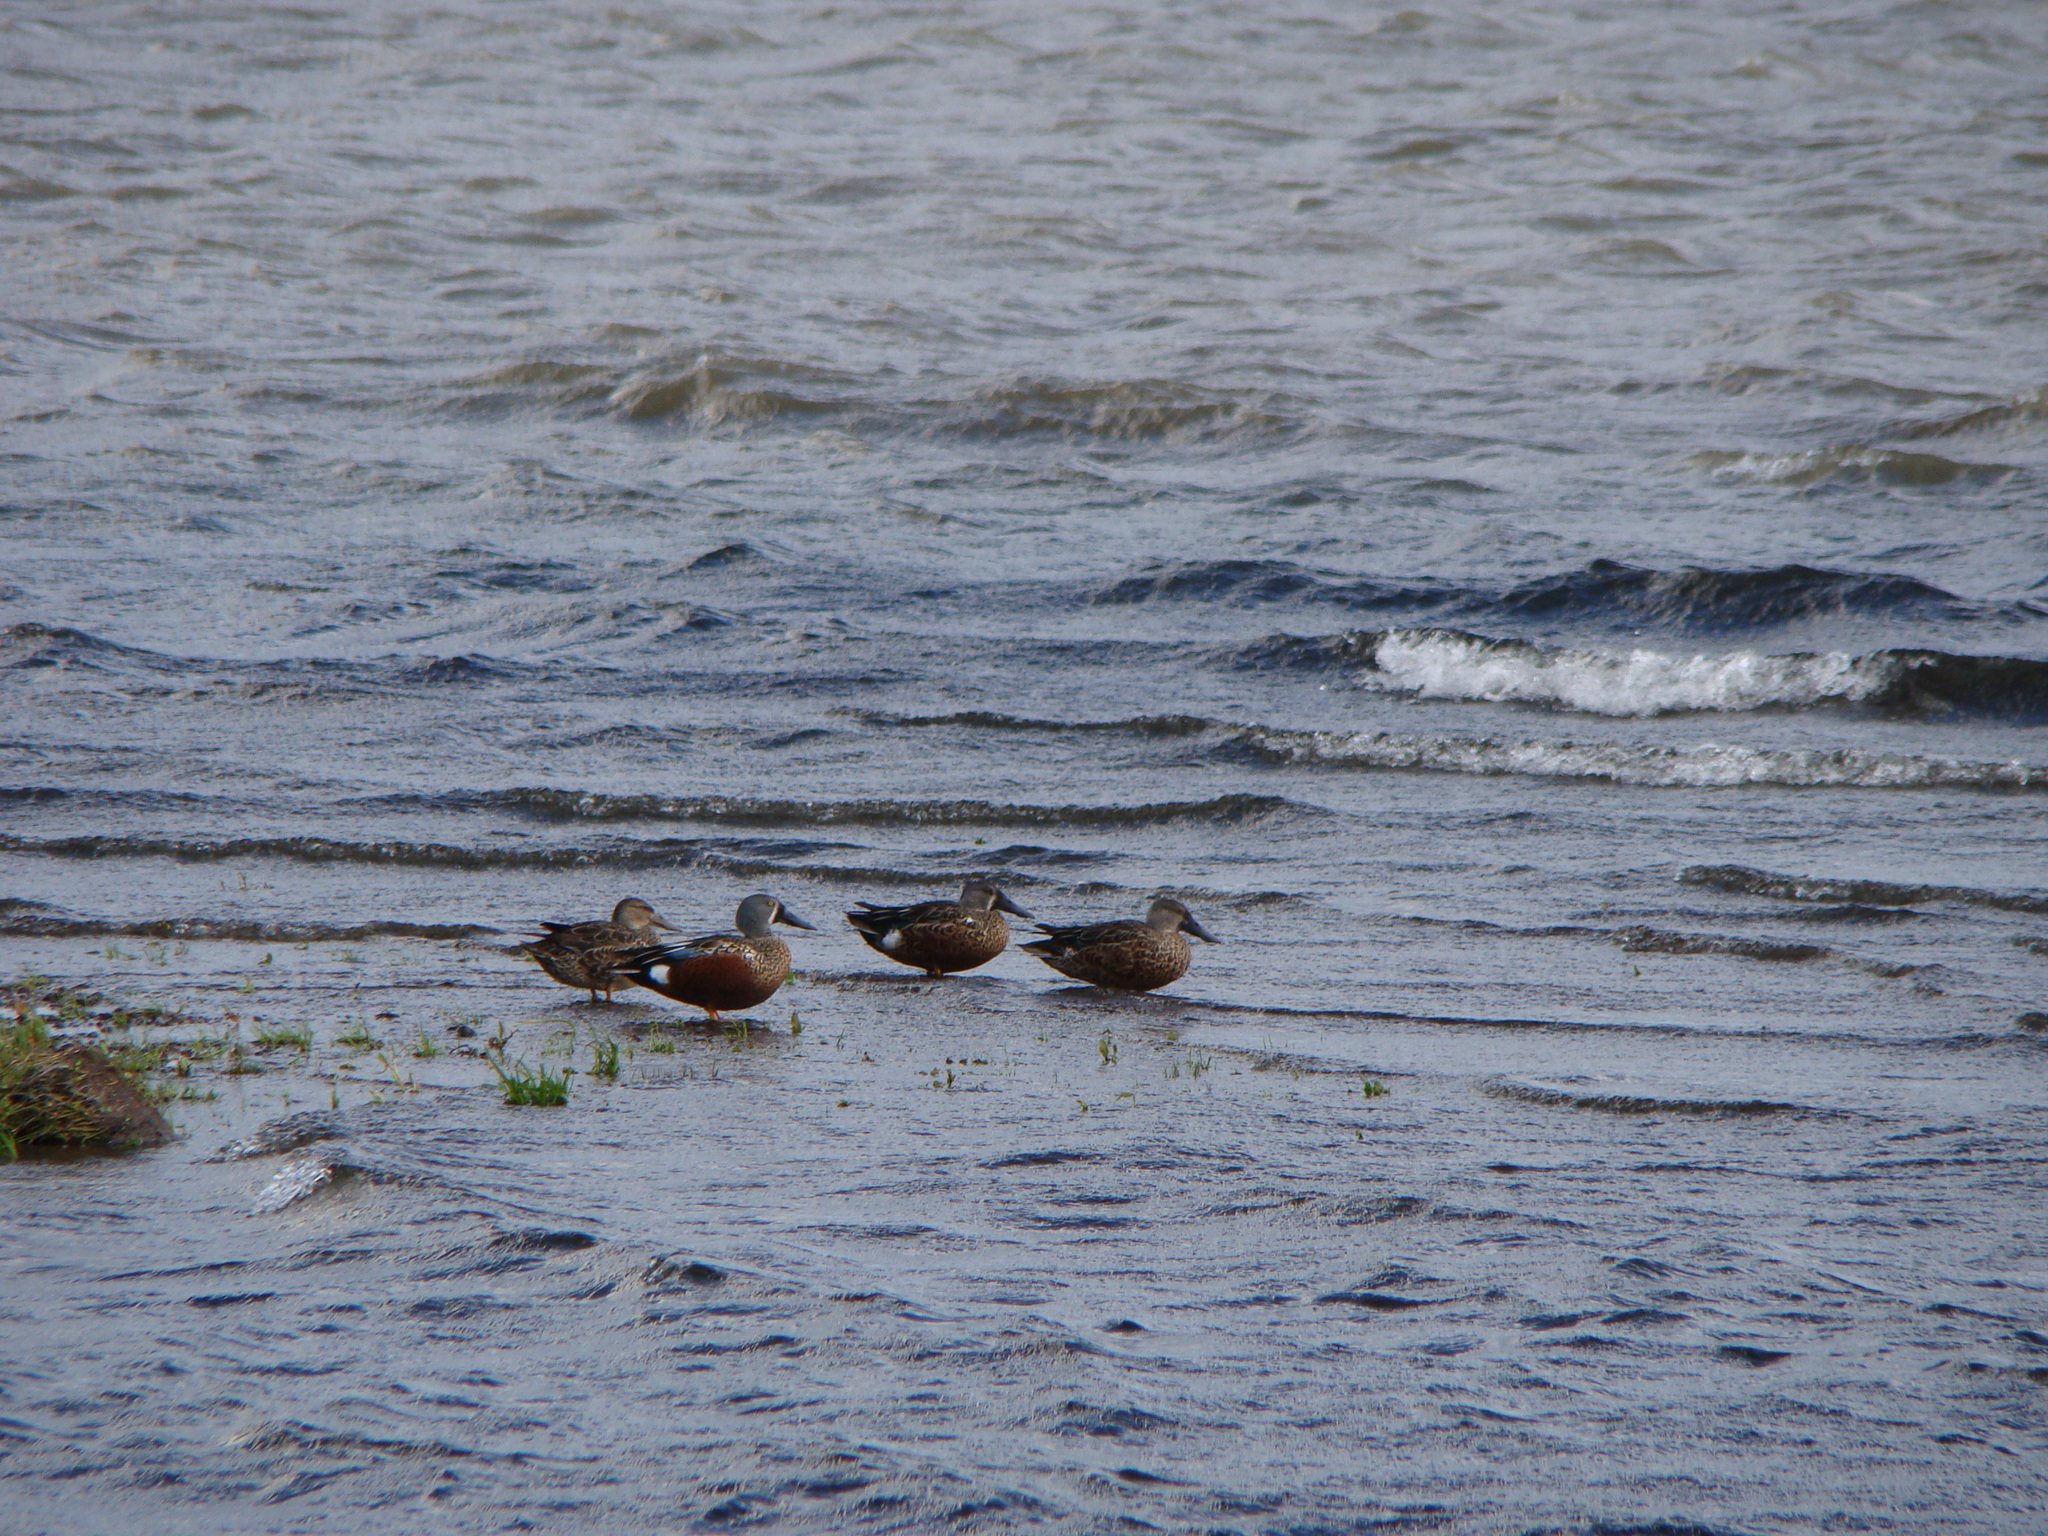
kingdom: Animalia
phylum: Chordata
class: Aves
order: Anseriformes
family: Anatidae
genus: Spatula
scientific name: Spatula rhynchotis
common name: Australian shoveler
